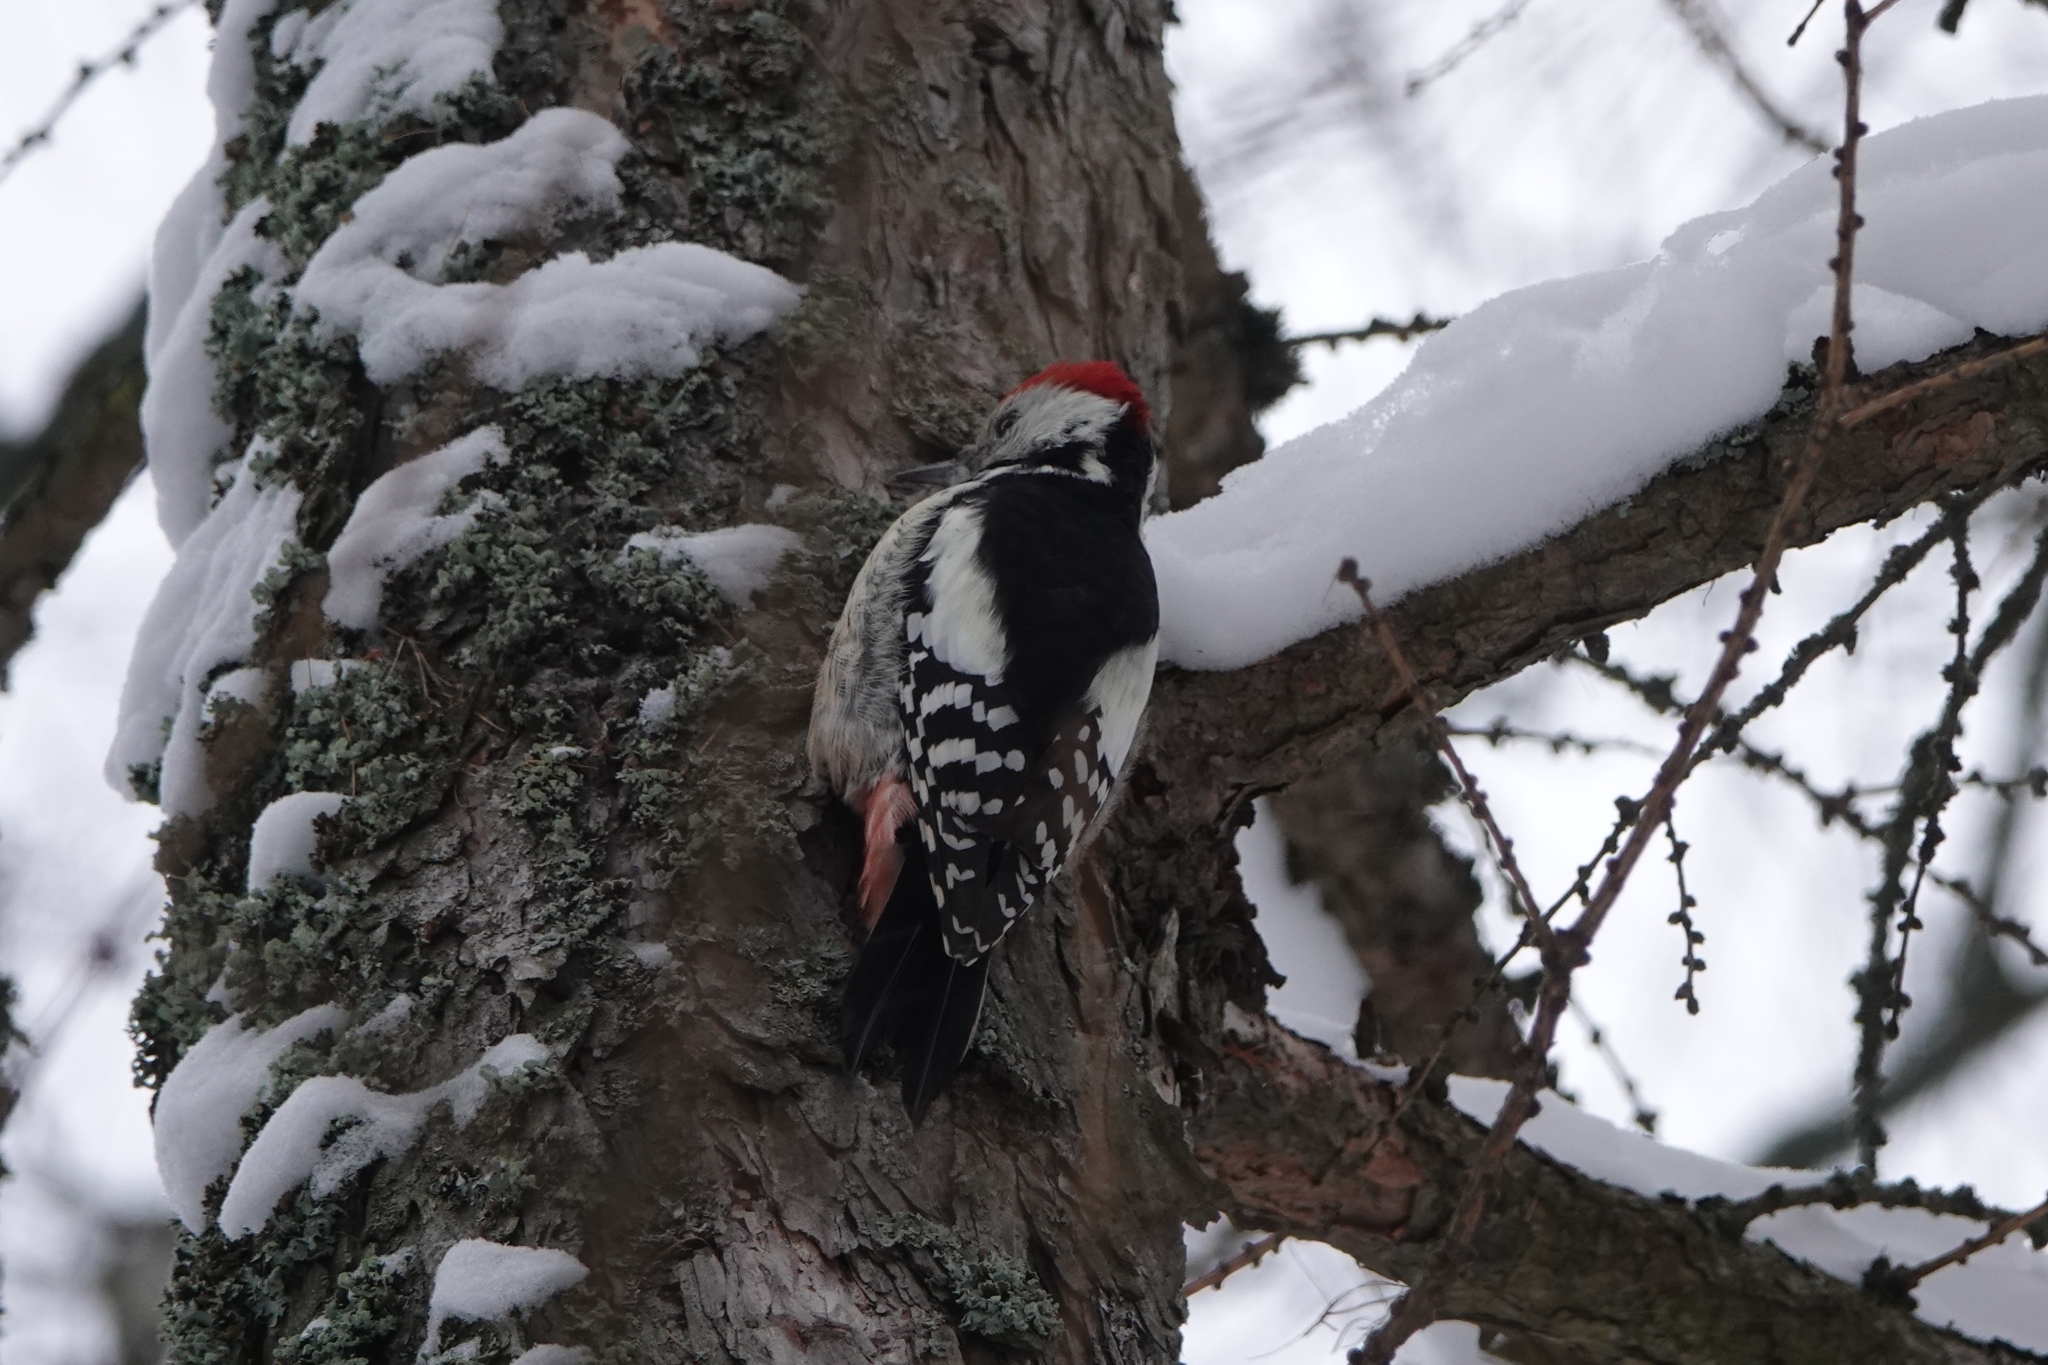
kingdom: Animalia
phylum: Chordata
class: Aves
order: Piciformes
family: Picidae
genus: Dendrocoptes
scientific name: Dendrocoptes medius
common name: Middle spotted woodpecker
